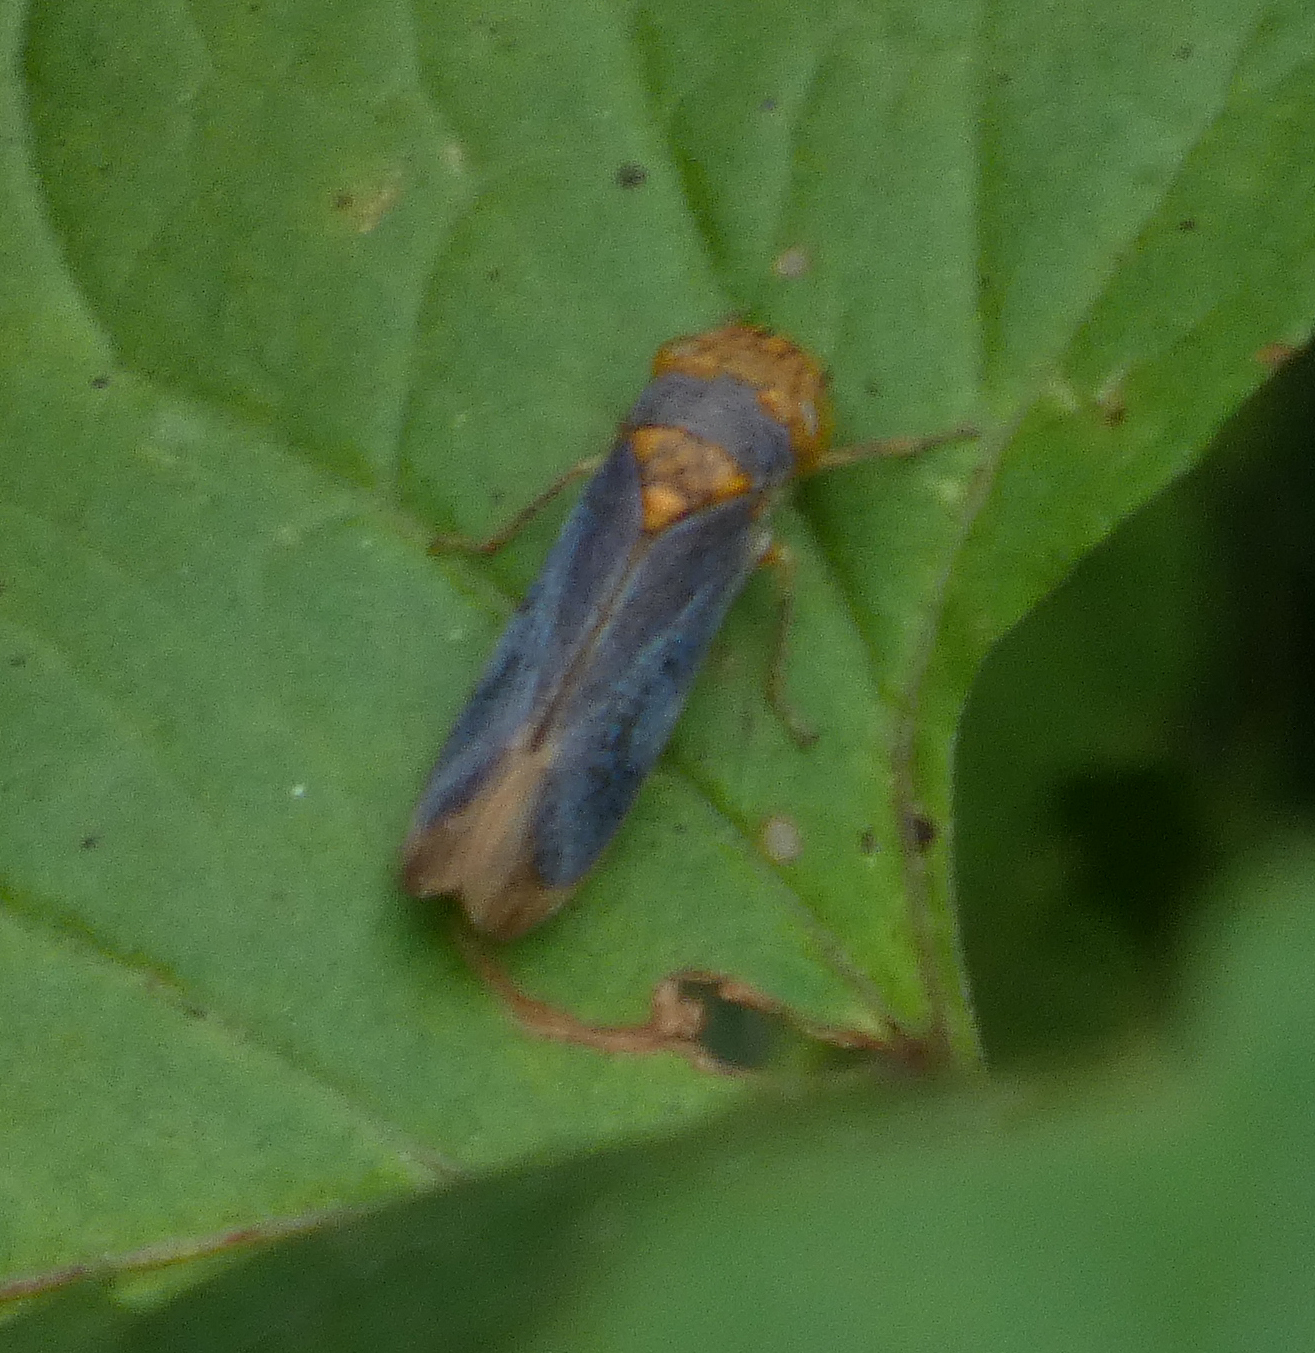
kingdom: Animalia
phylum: Arthropoda
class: Insecta
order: Hemiptera
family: Cicadellidae
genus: Oncometopia
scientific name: Oncometopia orbona
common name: Broad-headed sharpshooter
